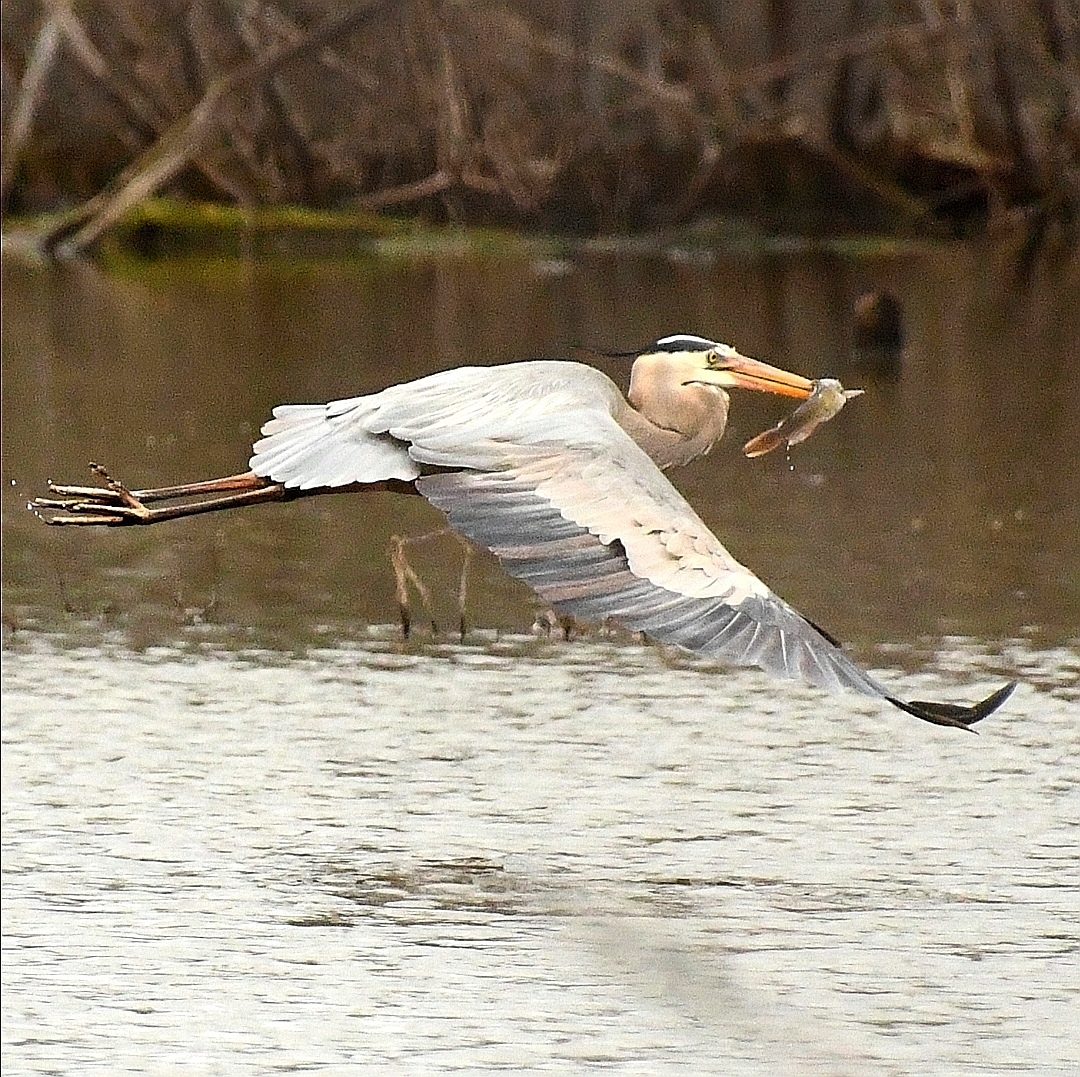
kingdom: Animalia
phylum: Chordata
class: Aves
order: Pelecaniformes
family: Ardeidae
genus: Ardea
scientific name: Ardea herodias
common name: Great blue heron
